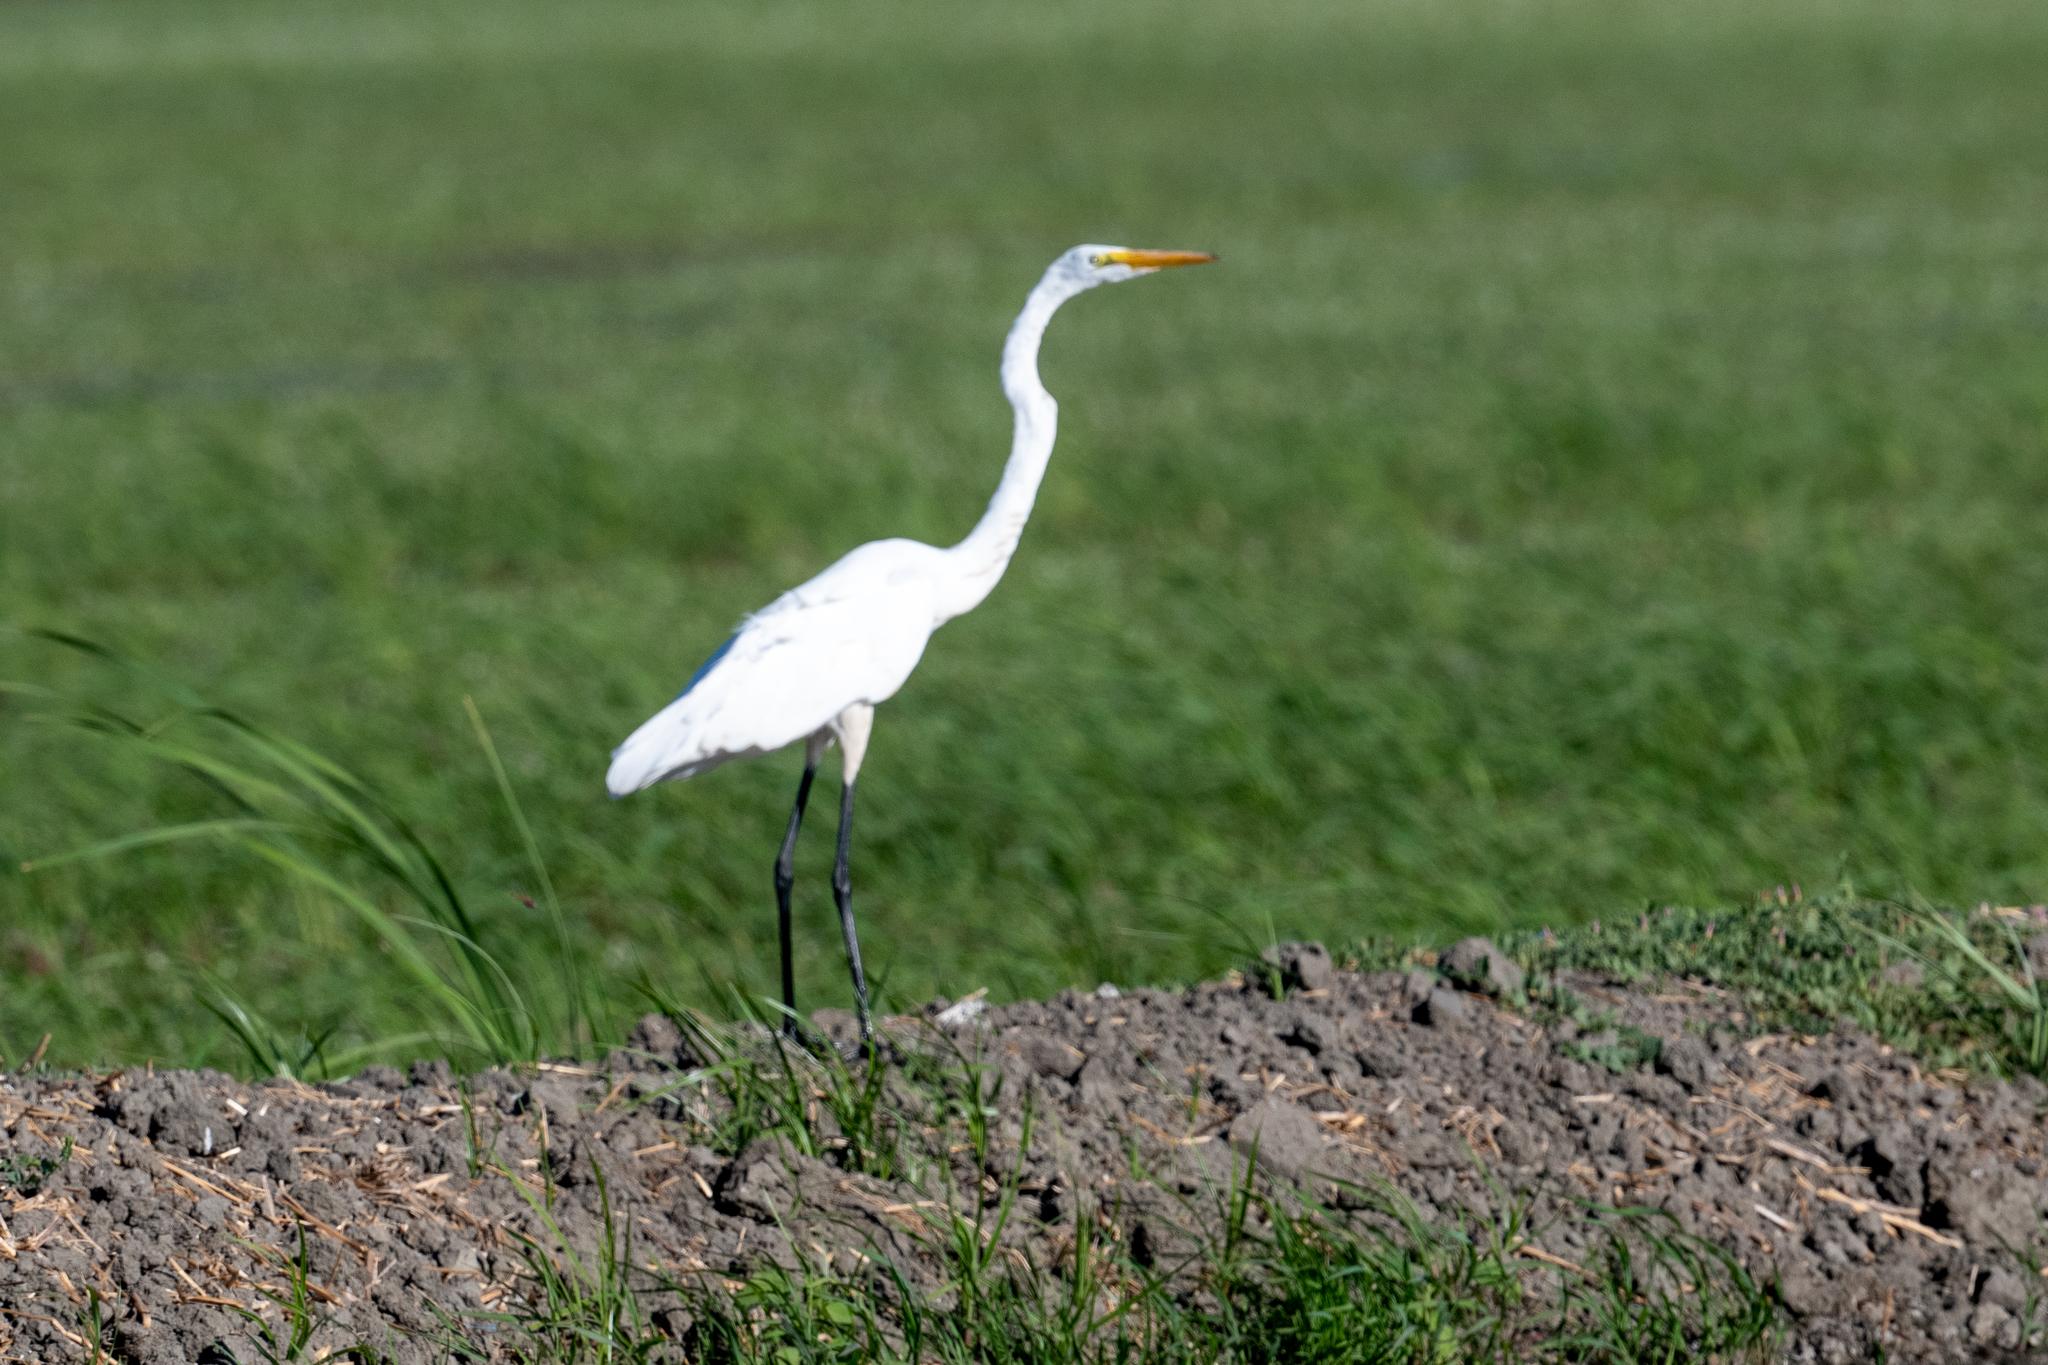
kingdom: Animalia
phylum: Chordata
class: Aves
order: Pelecaniformes
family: Ardeidae
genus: Ardea
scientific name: Ardea alba
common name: Great egret
